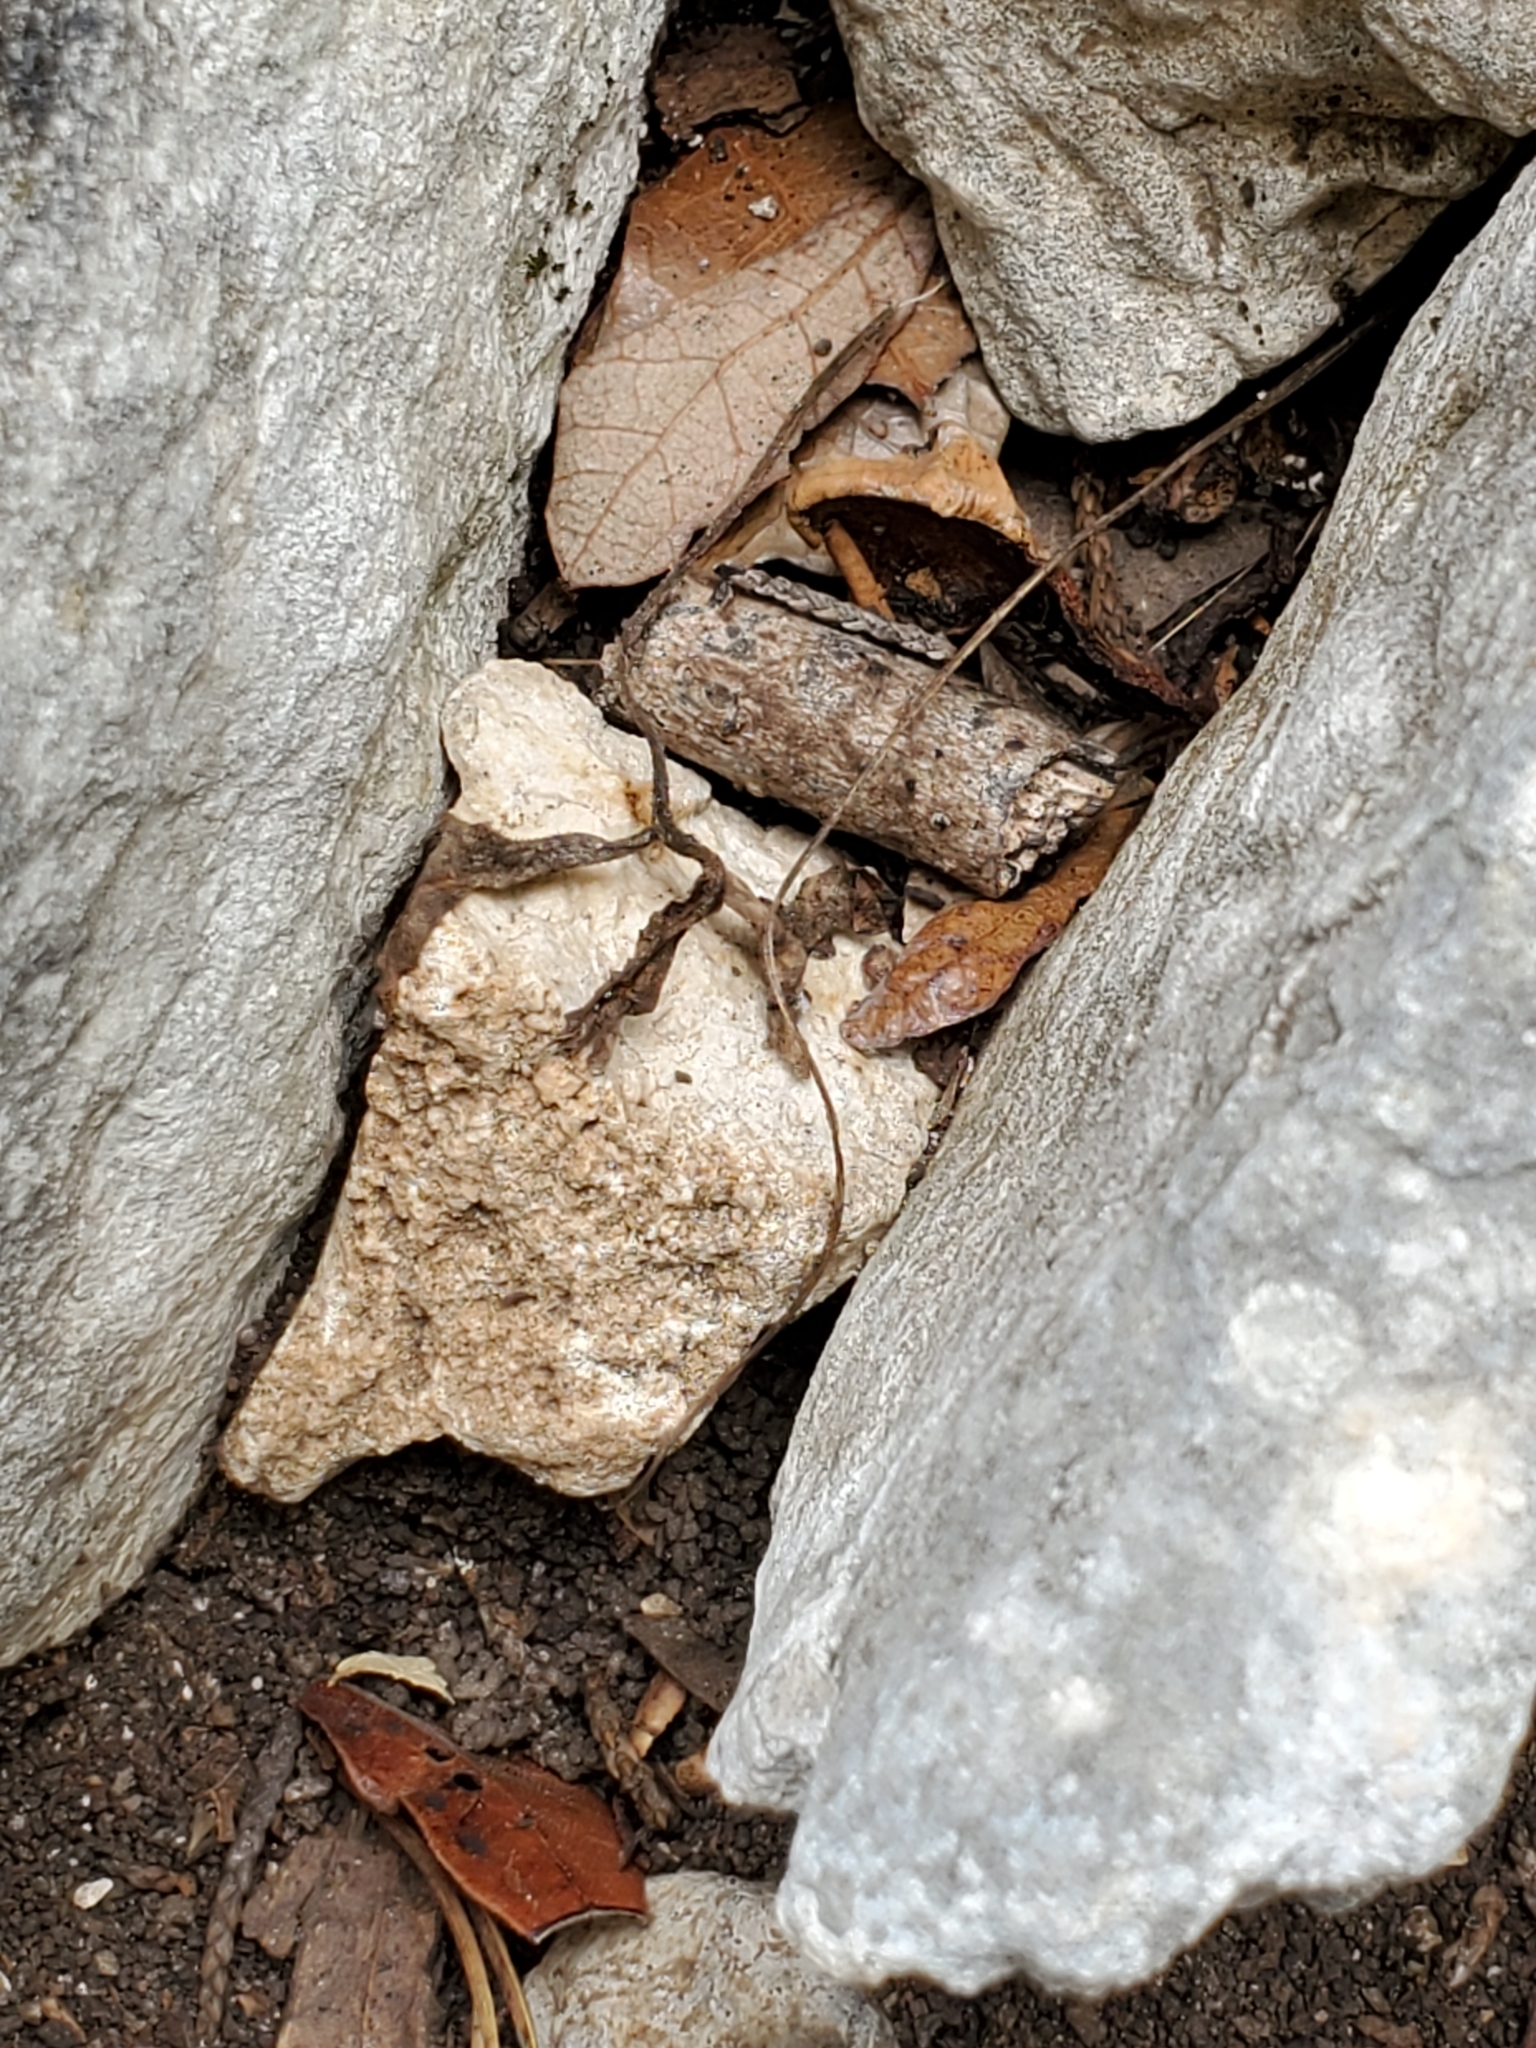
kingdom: Plantae
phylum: Tracheophyta
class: Magnoliopsida
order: Ranunculales
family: Ranunculaceae
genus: Anemone
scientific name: Anemone edwardsiana
